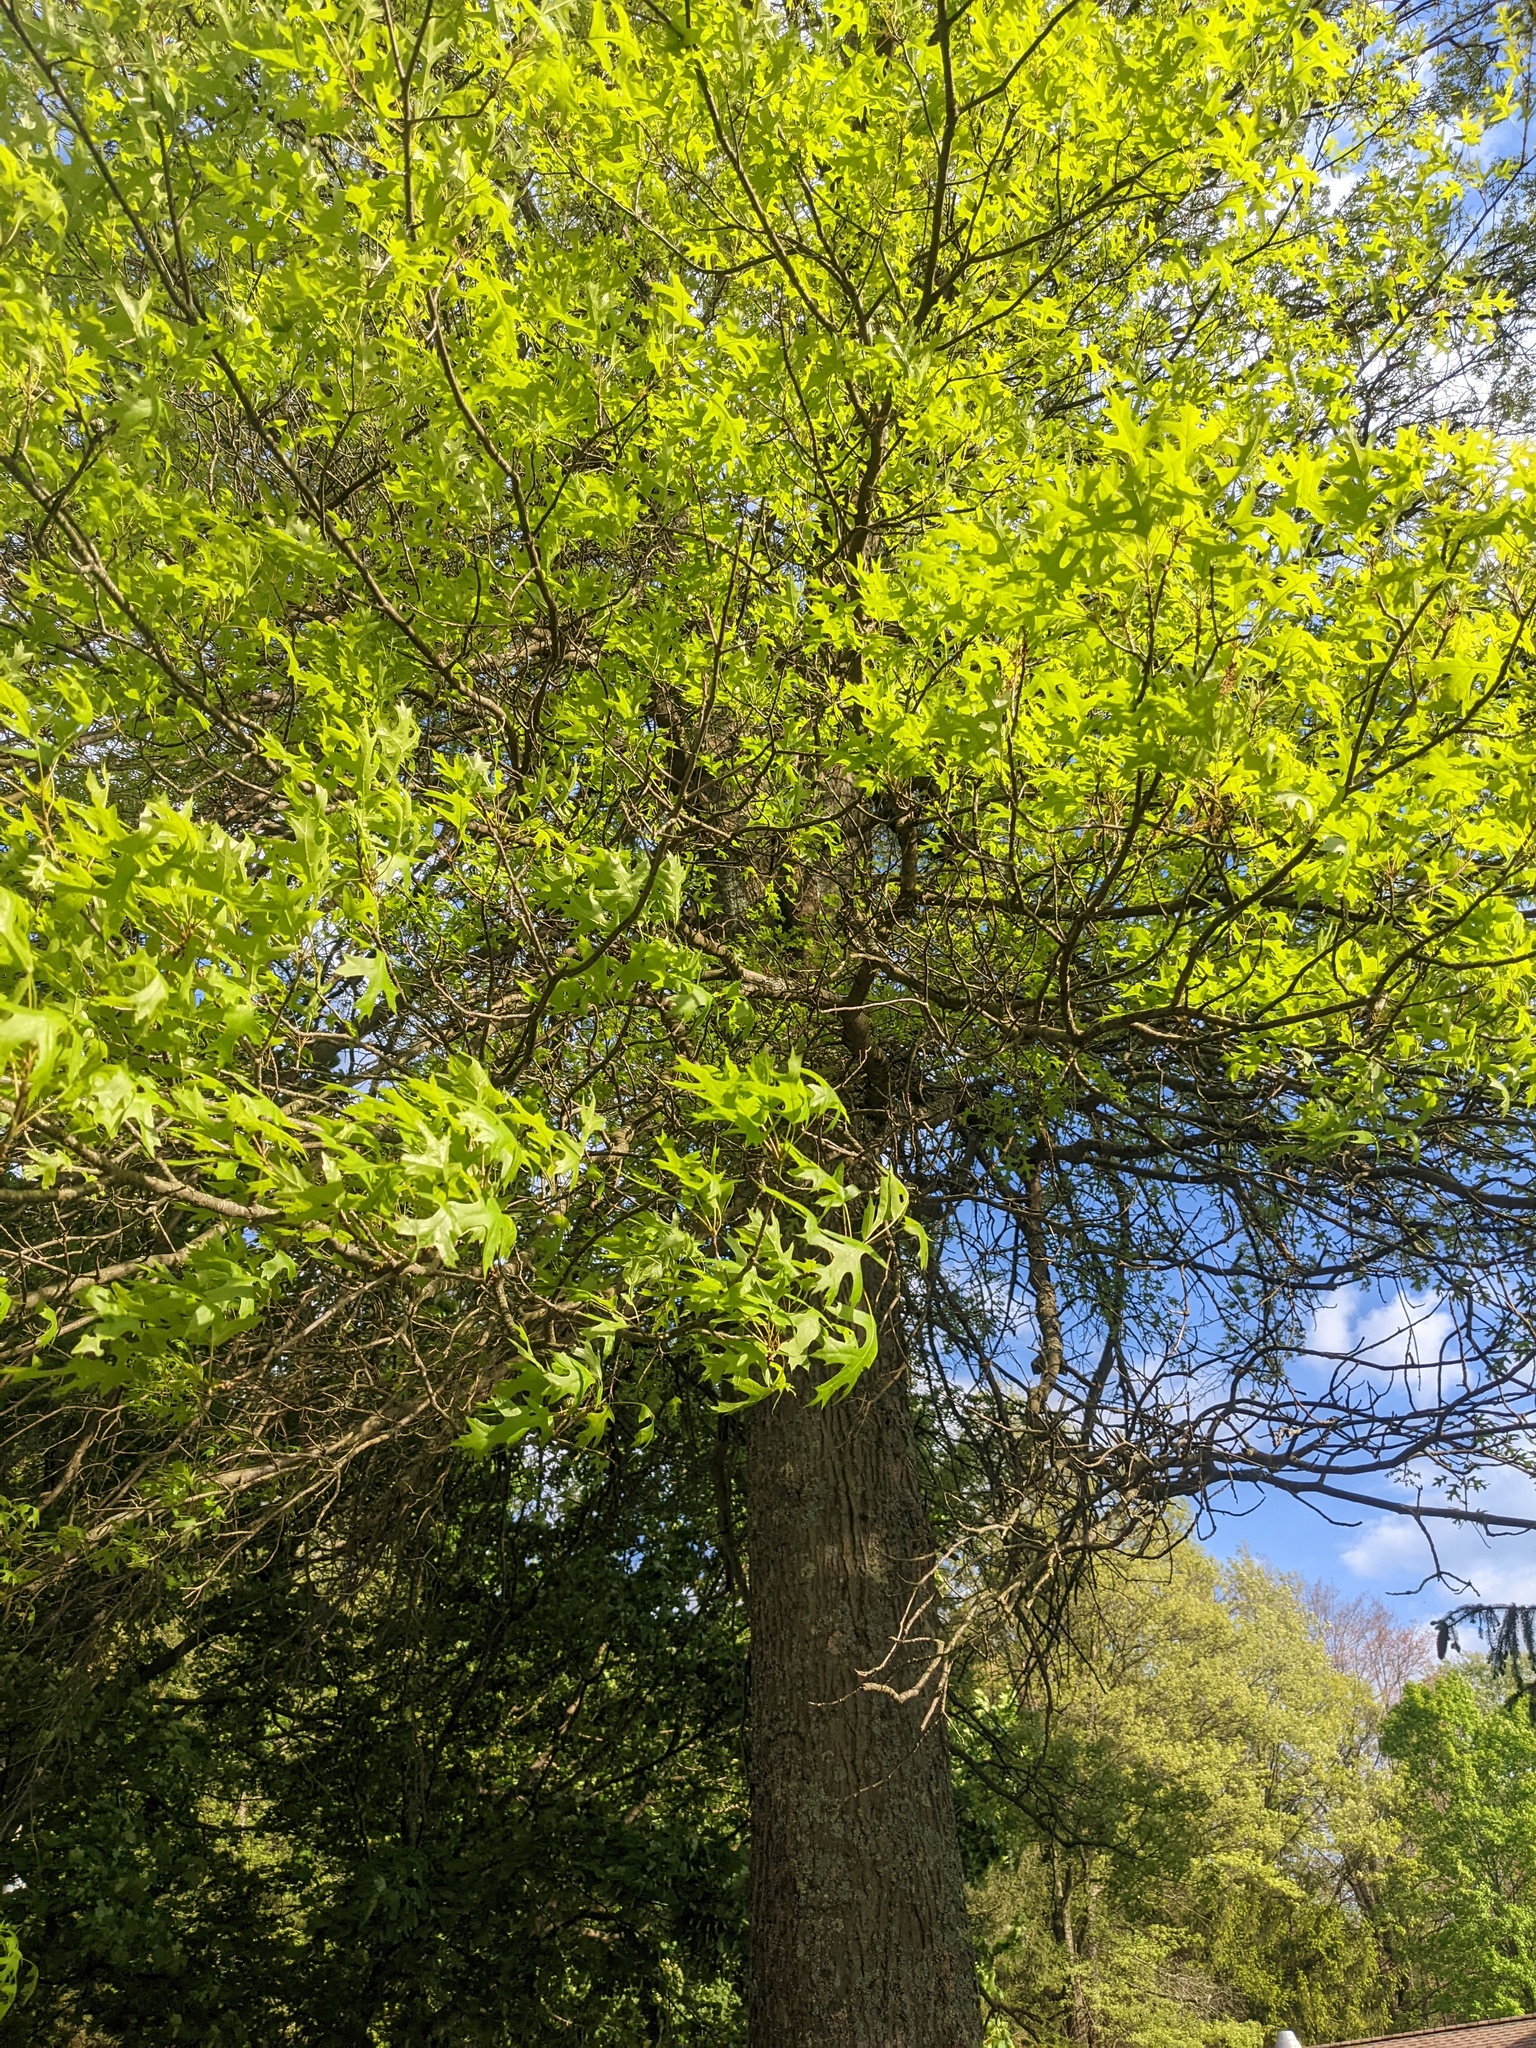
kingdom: Plantae
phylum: Tracheophyta
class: Magnoliopsida
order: Fagales
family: Fagaceae
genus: Quercus
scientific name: Quercus coccinea
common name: Scarlet oak
